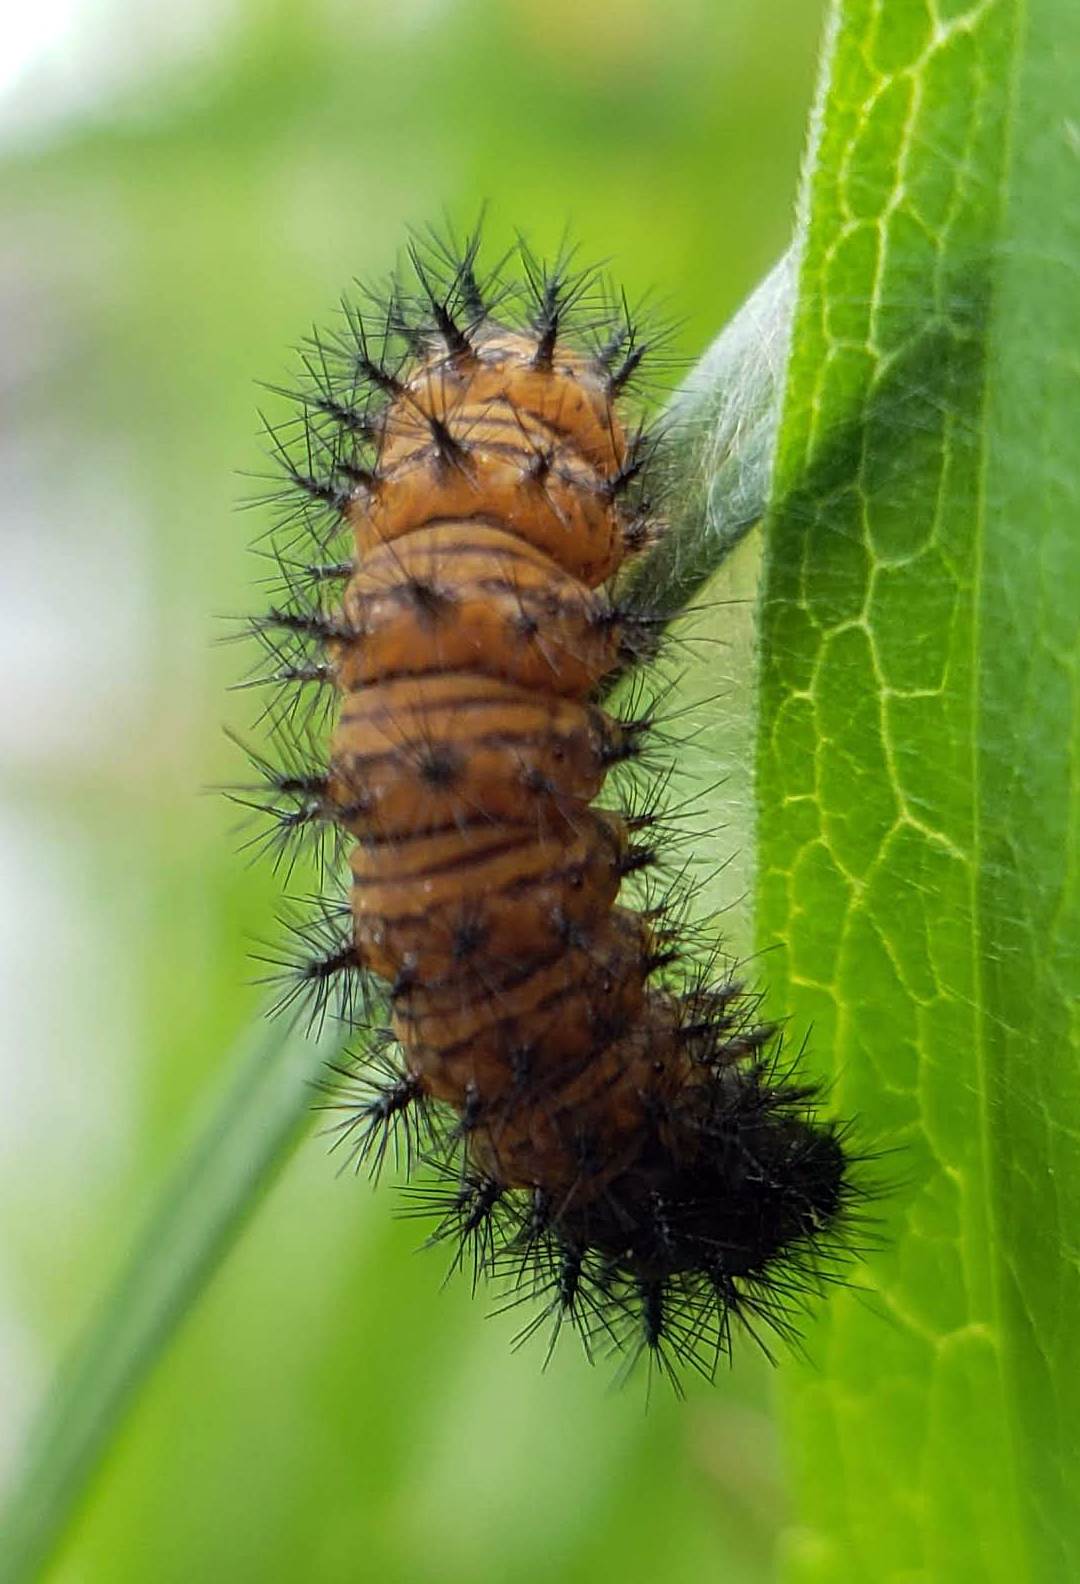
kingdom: Animalia
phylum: Arthropoda
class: Insecta
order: Lepidoptera
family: Nymphalidae
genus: Euphydryas
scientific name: Euphydryas phaeton
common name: Baltimore checkerspot
